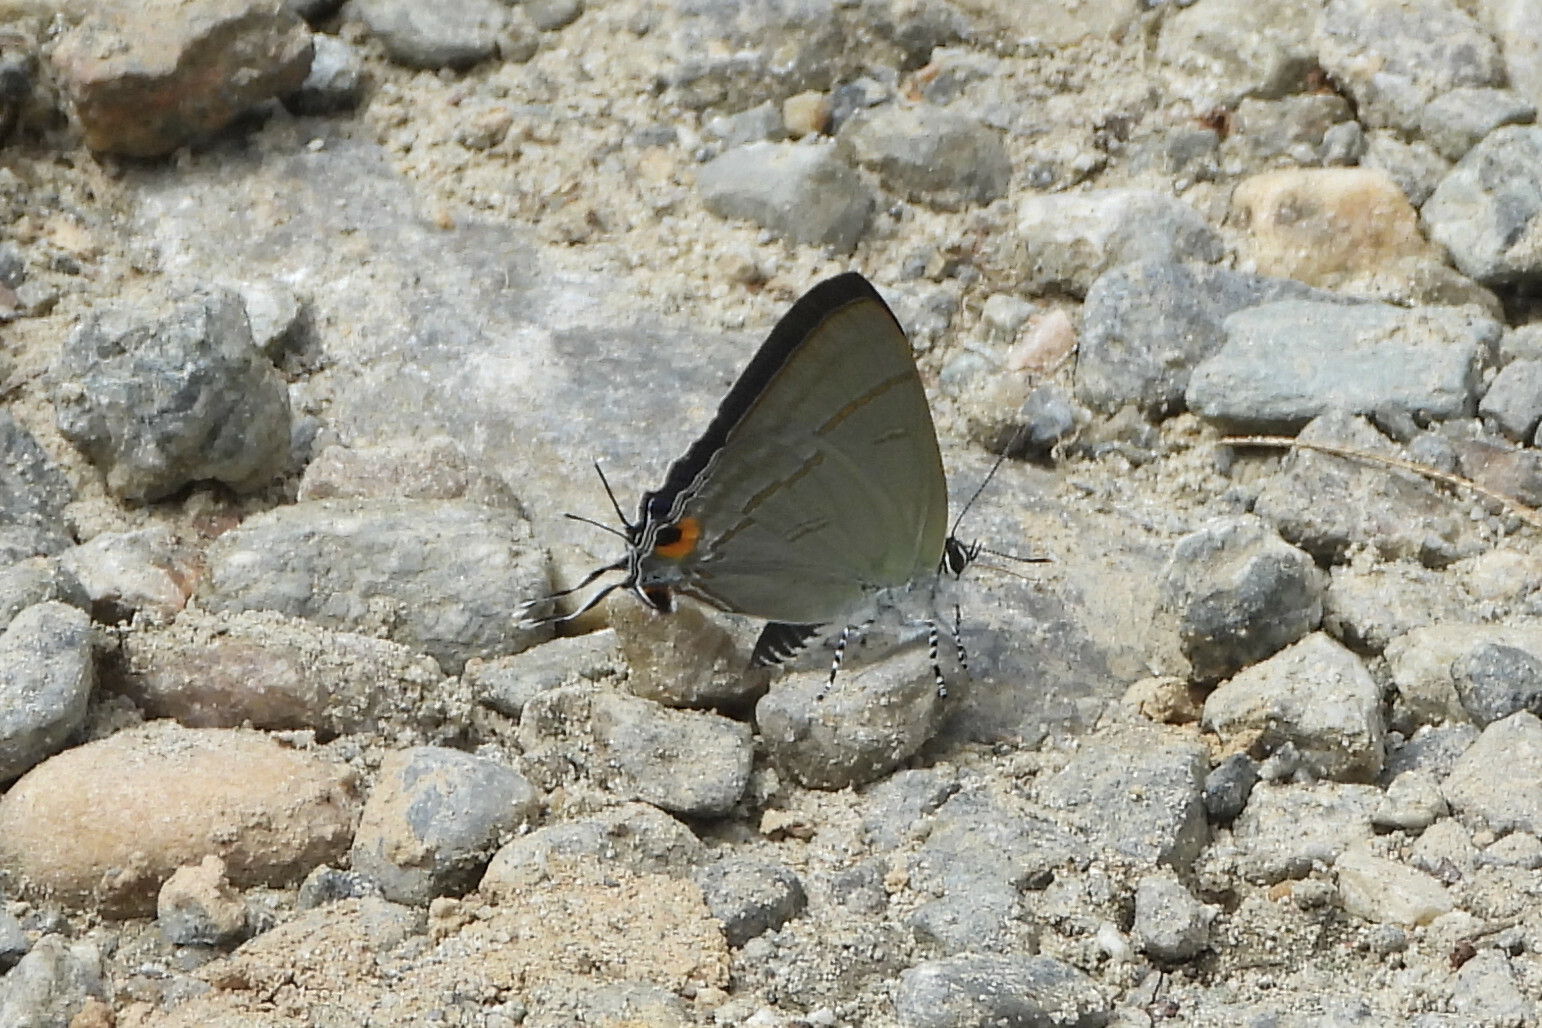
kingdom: Animalia
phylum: Arthropoda
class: Insecta
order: Lepidoptera
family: Lycaenidae
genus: Hypolycaena
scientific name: Hypolycaena erylus
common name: Common tit
